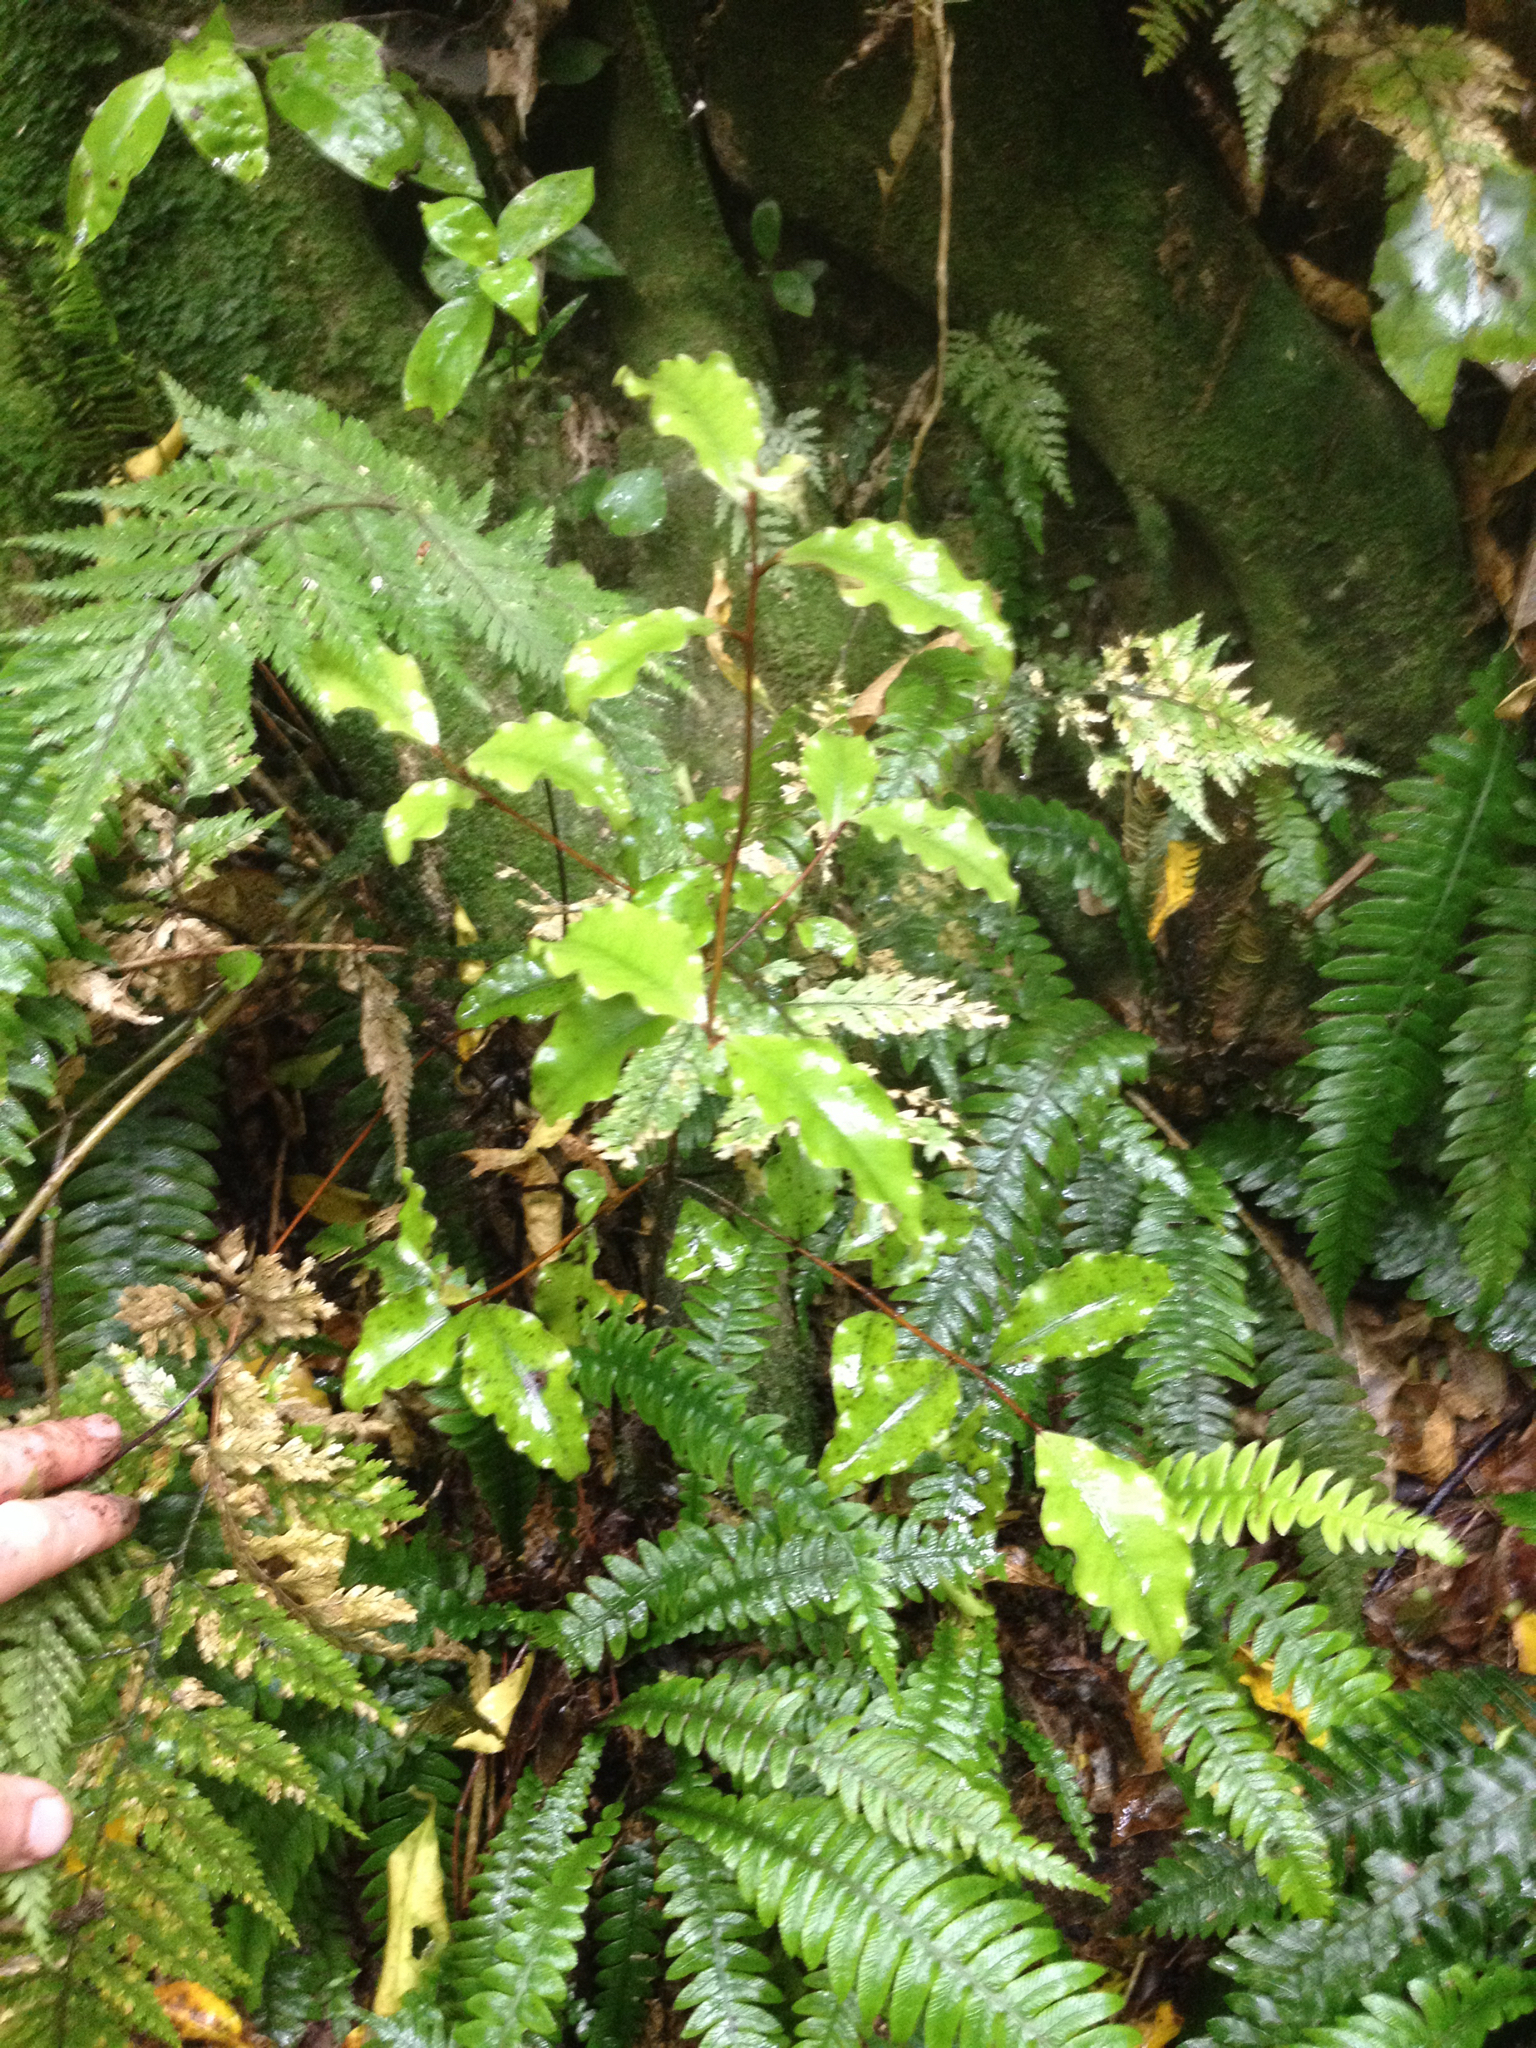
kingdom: Plantae
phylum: Tracheophyta
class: Magnoliopsida
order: Ericales
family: Primulaceae
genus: Myrsine
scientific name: Myrsine australis
